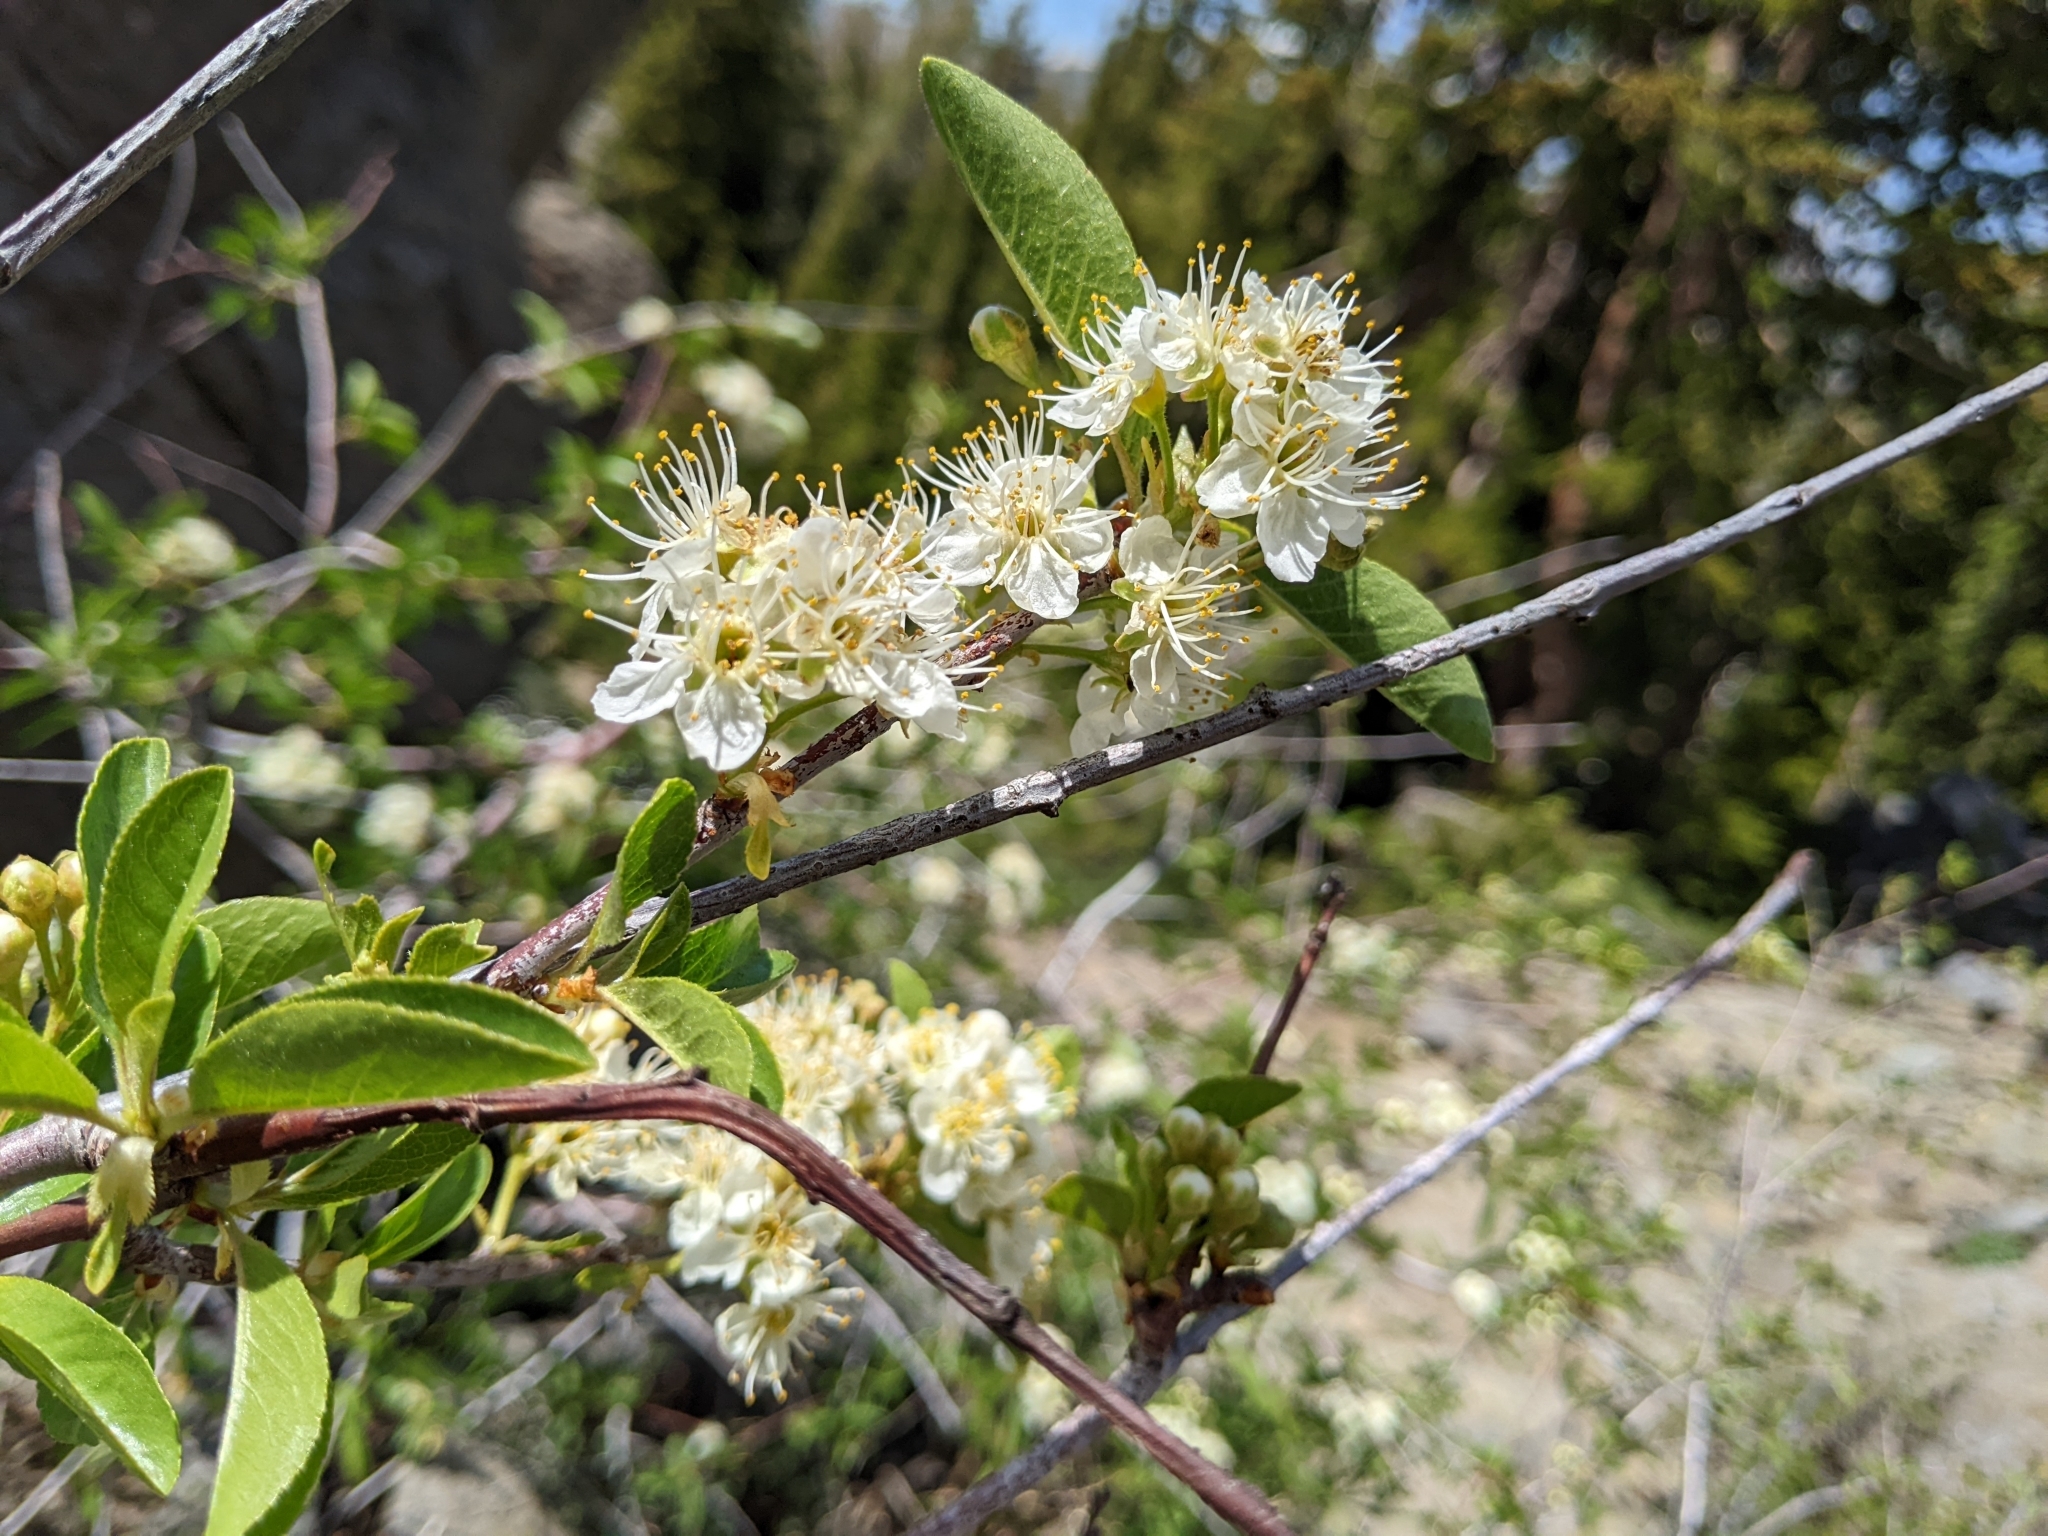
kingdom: Plantae
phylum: Tracheophyta
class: Magnoliopsida
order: Rosales
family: Rosaceae
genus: Prunus
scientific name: Prunus emarginata
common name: Bitter cherry
